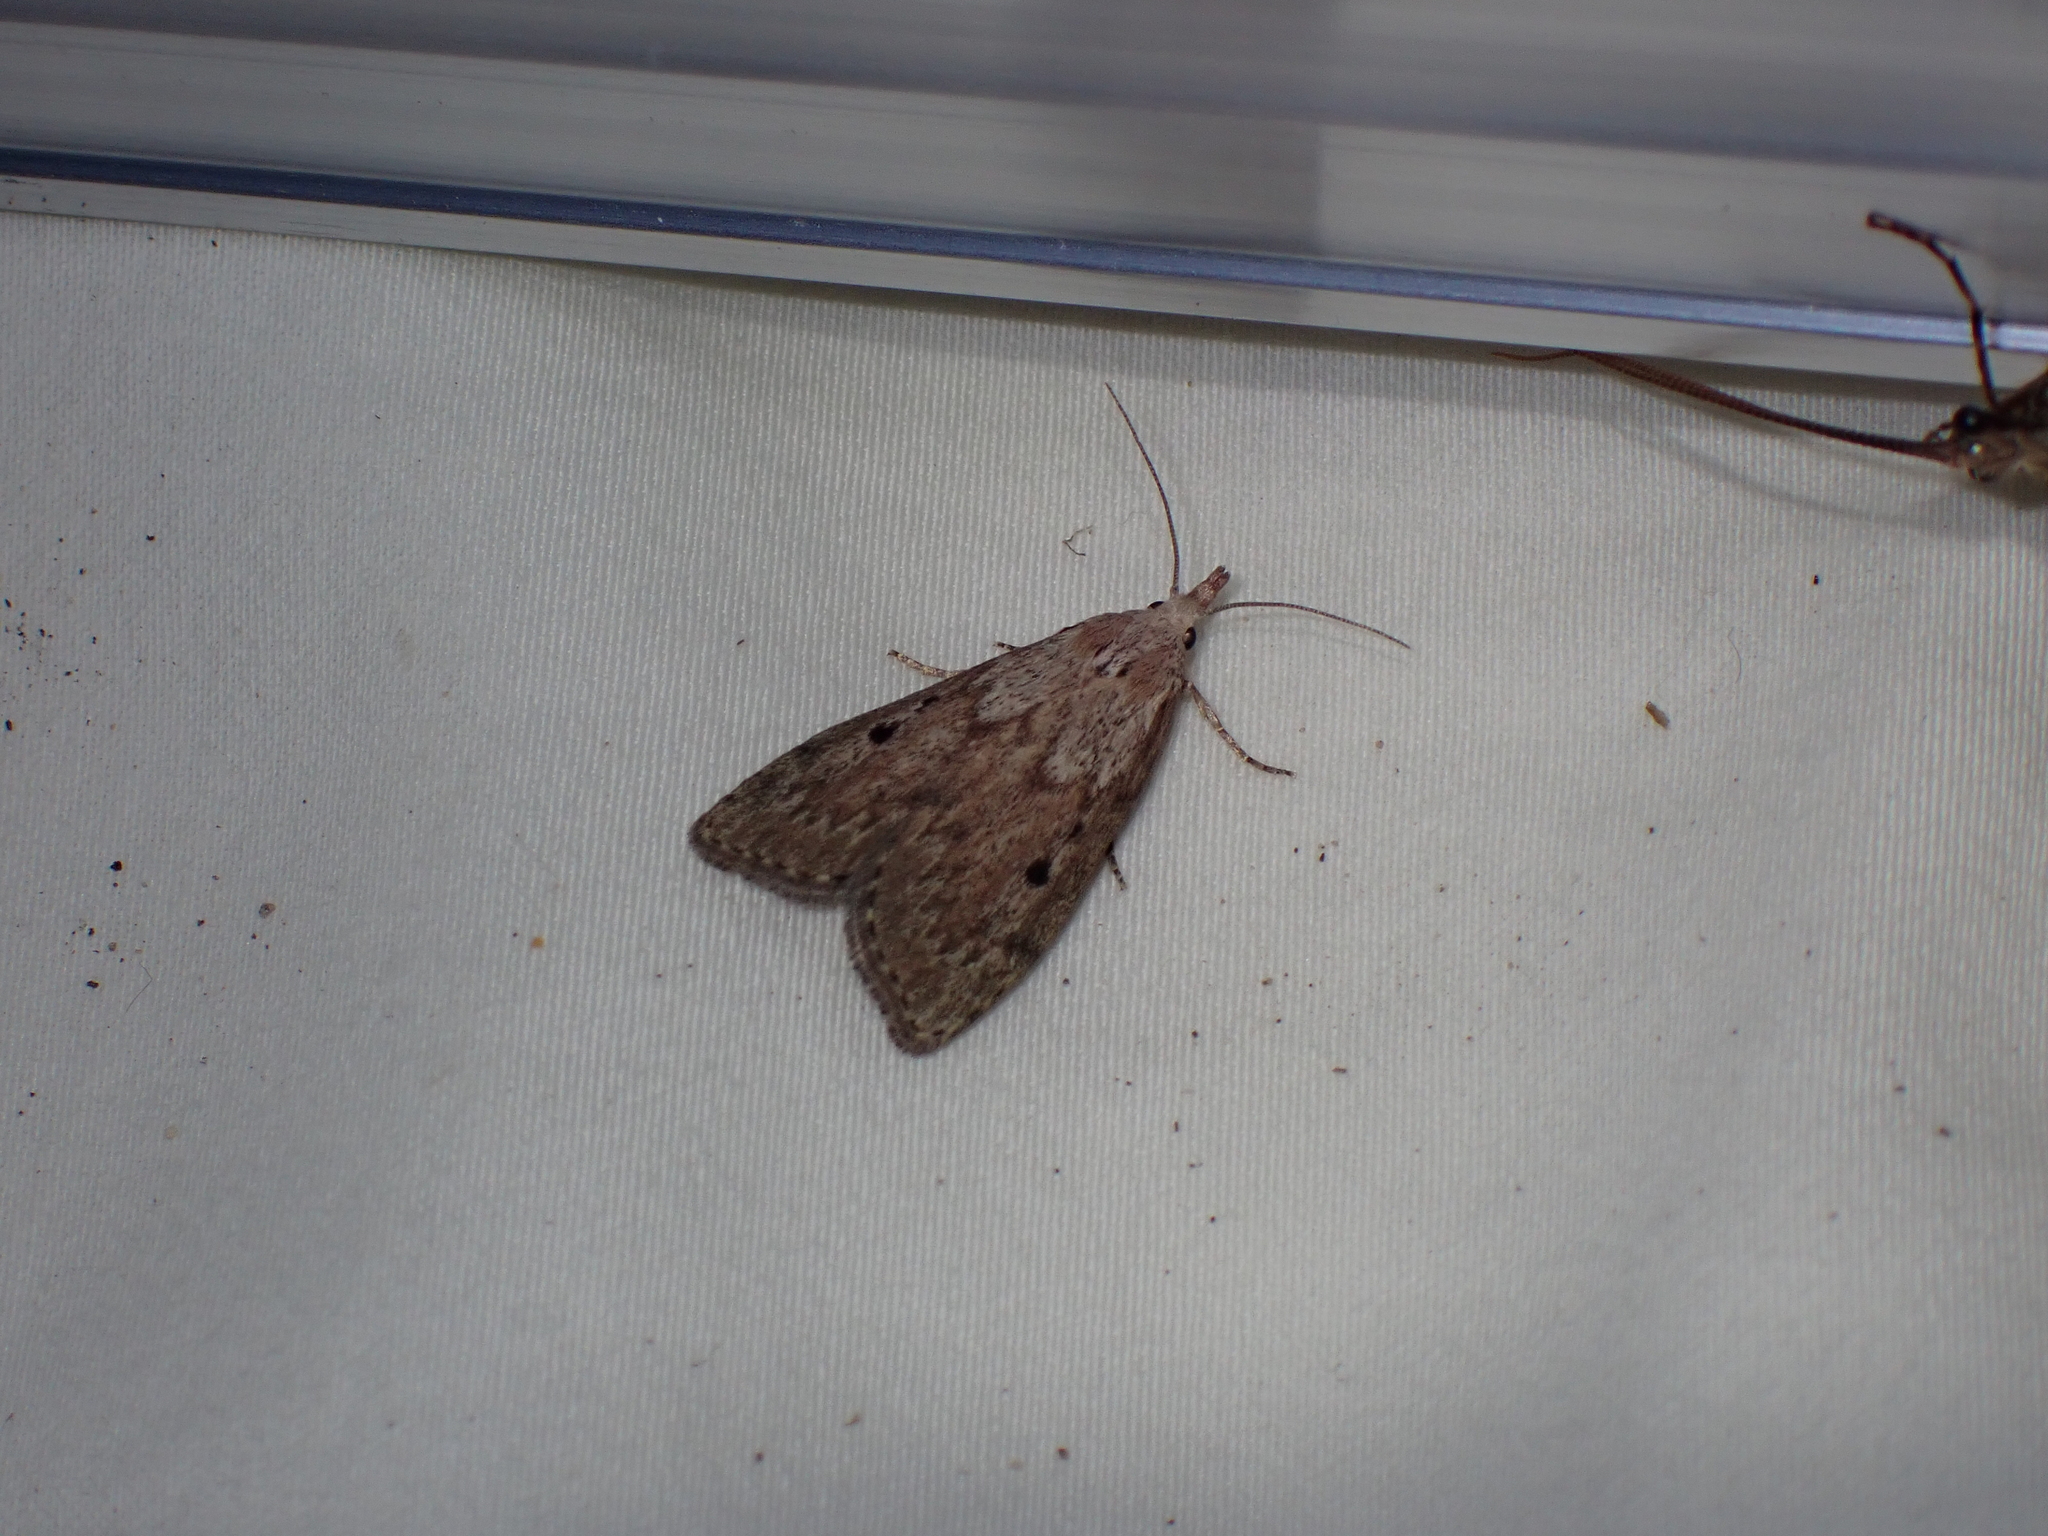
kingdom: Animalia
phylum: Arthropoda
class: Insecta
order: Lepidoptera
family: Pyralidae
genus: Aphomia
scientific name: Aphomia sociella
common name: Bee moth
